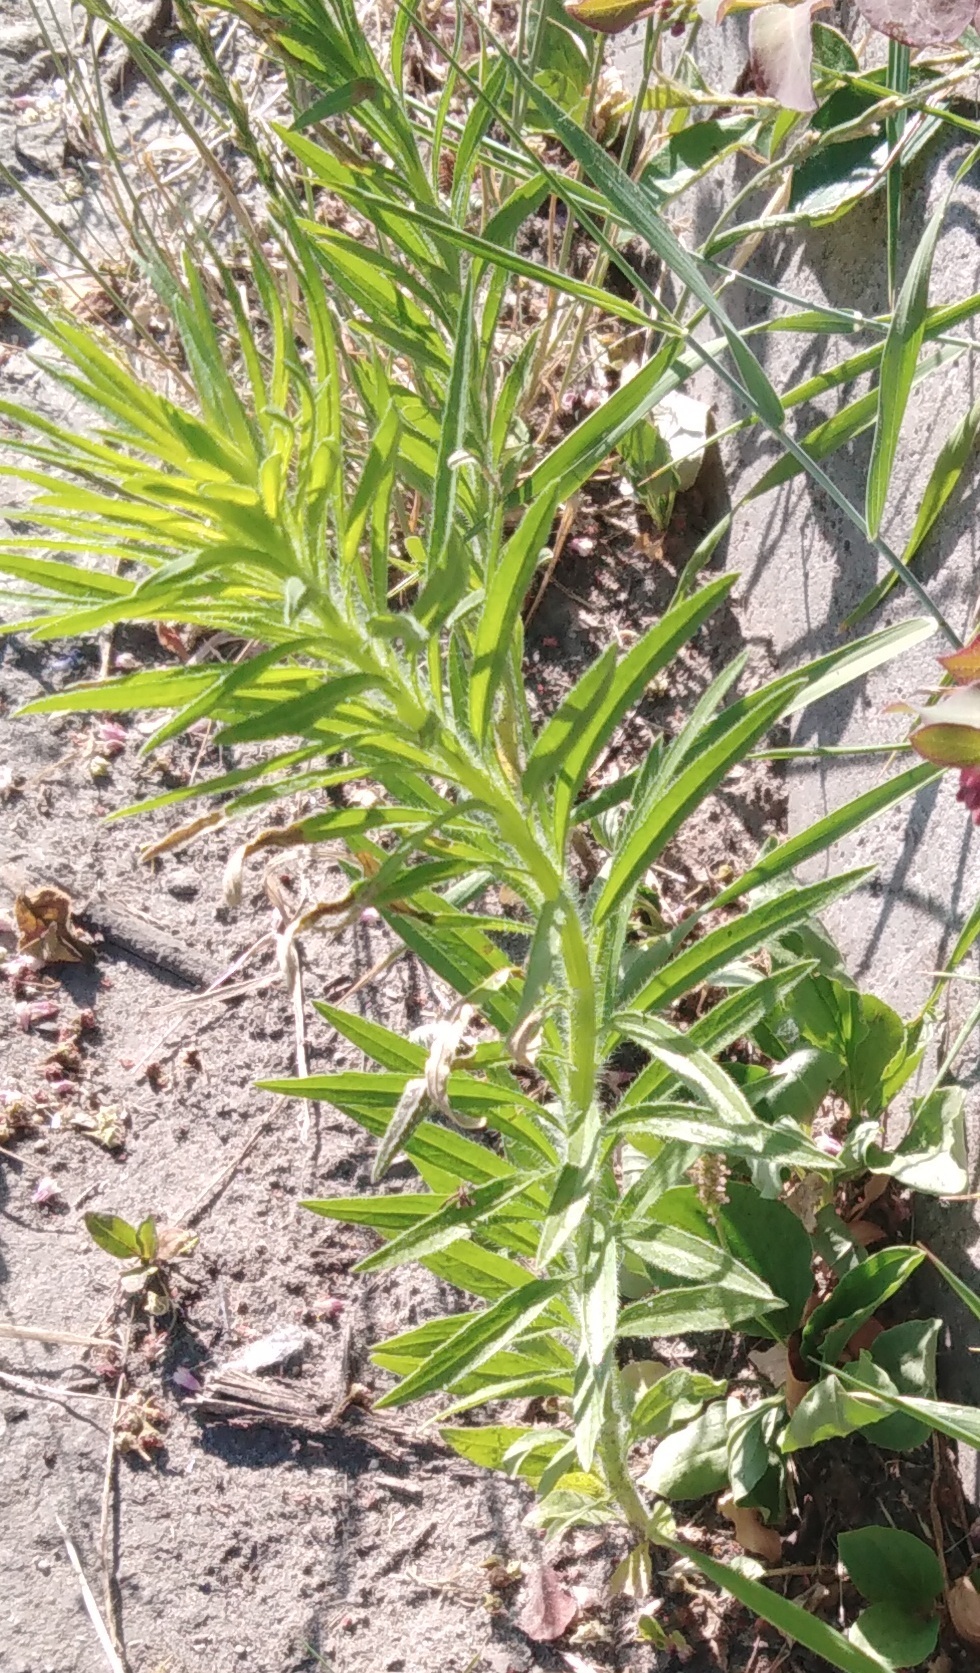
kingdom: Plantae
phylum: Tracheophyta
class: Magnoliopsida
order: Asterales
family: Asteraceae
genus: Erigeron
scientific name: Erigeron canadensis
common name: Canadian fleabane
